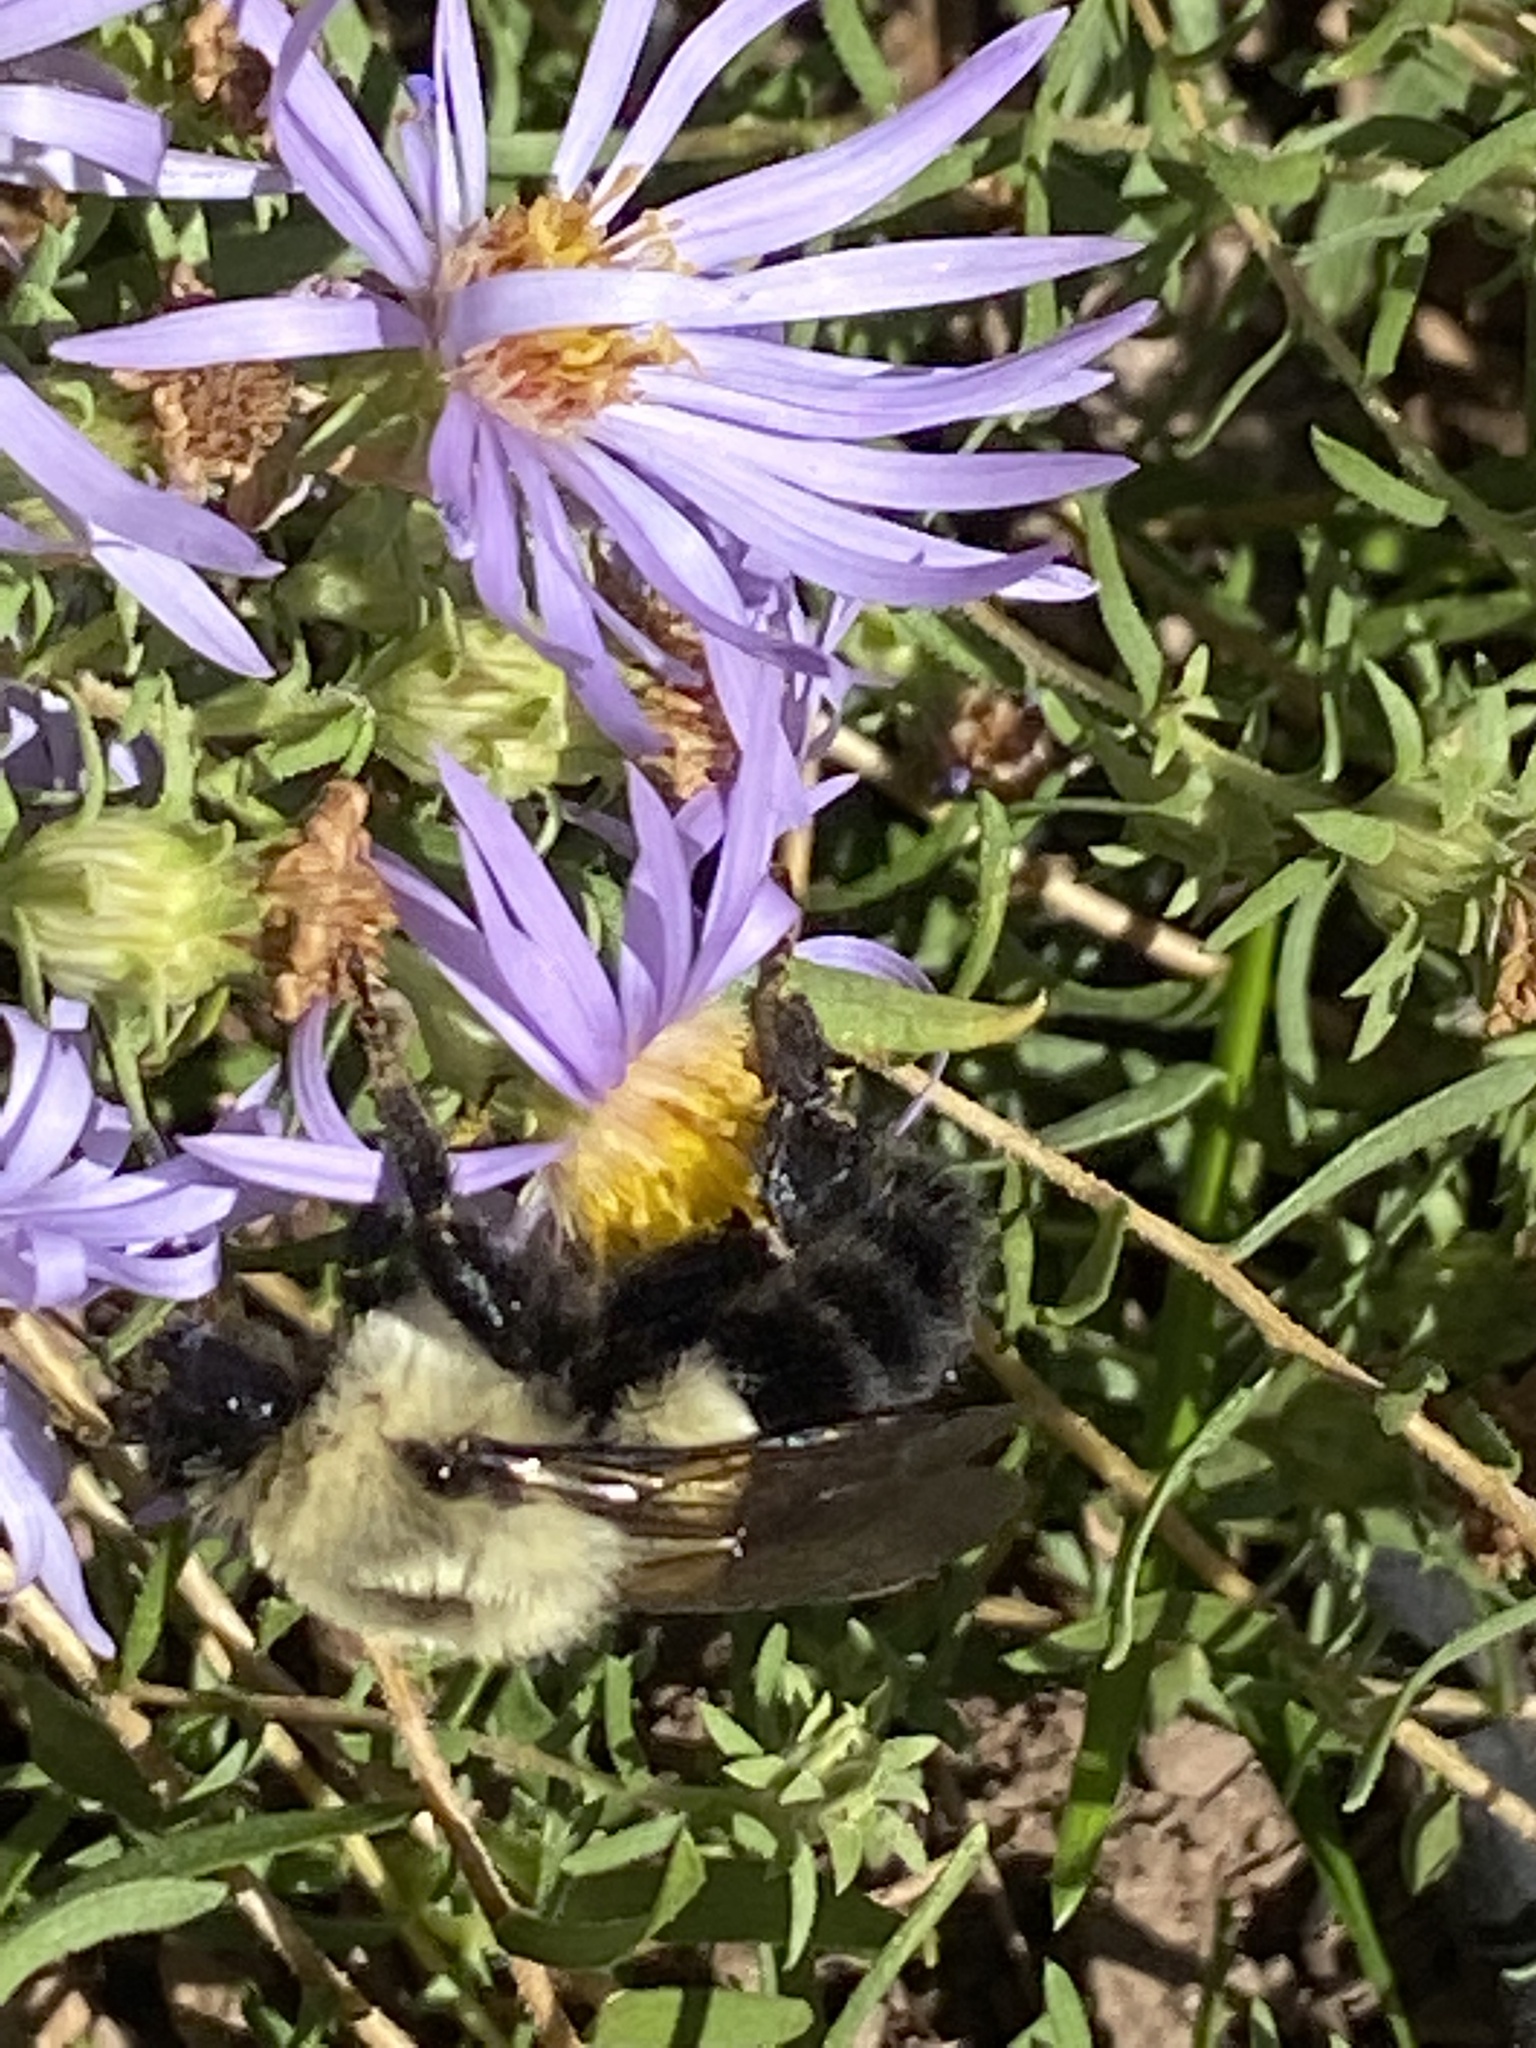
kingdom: Animalia
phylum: Arthropoda
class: Insecta
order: Hymenoptera
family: Apidae
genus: Bombus
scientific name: Bombus impatiens
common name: Common eastern bumble bee
